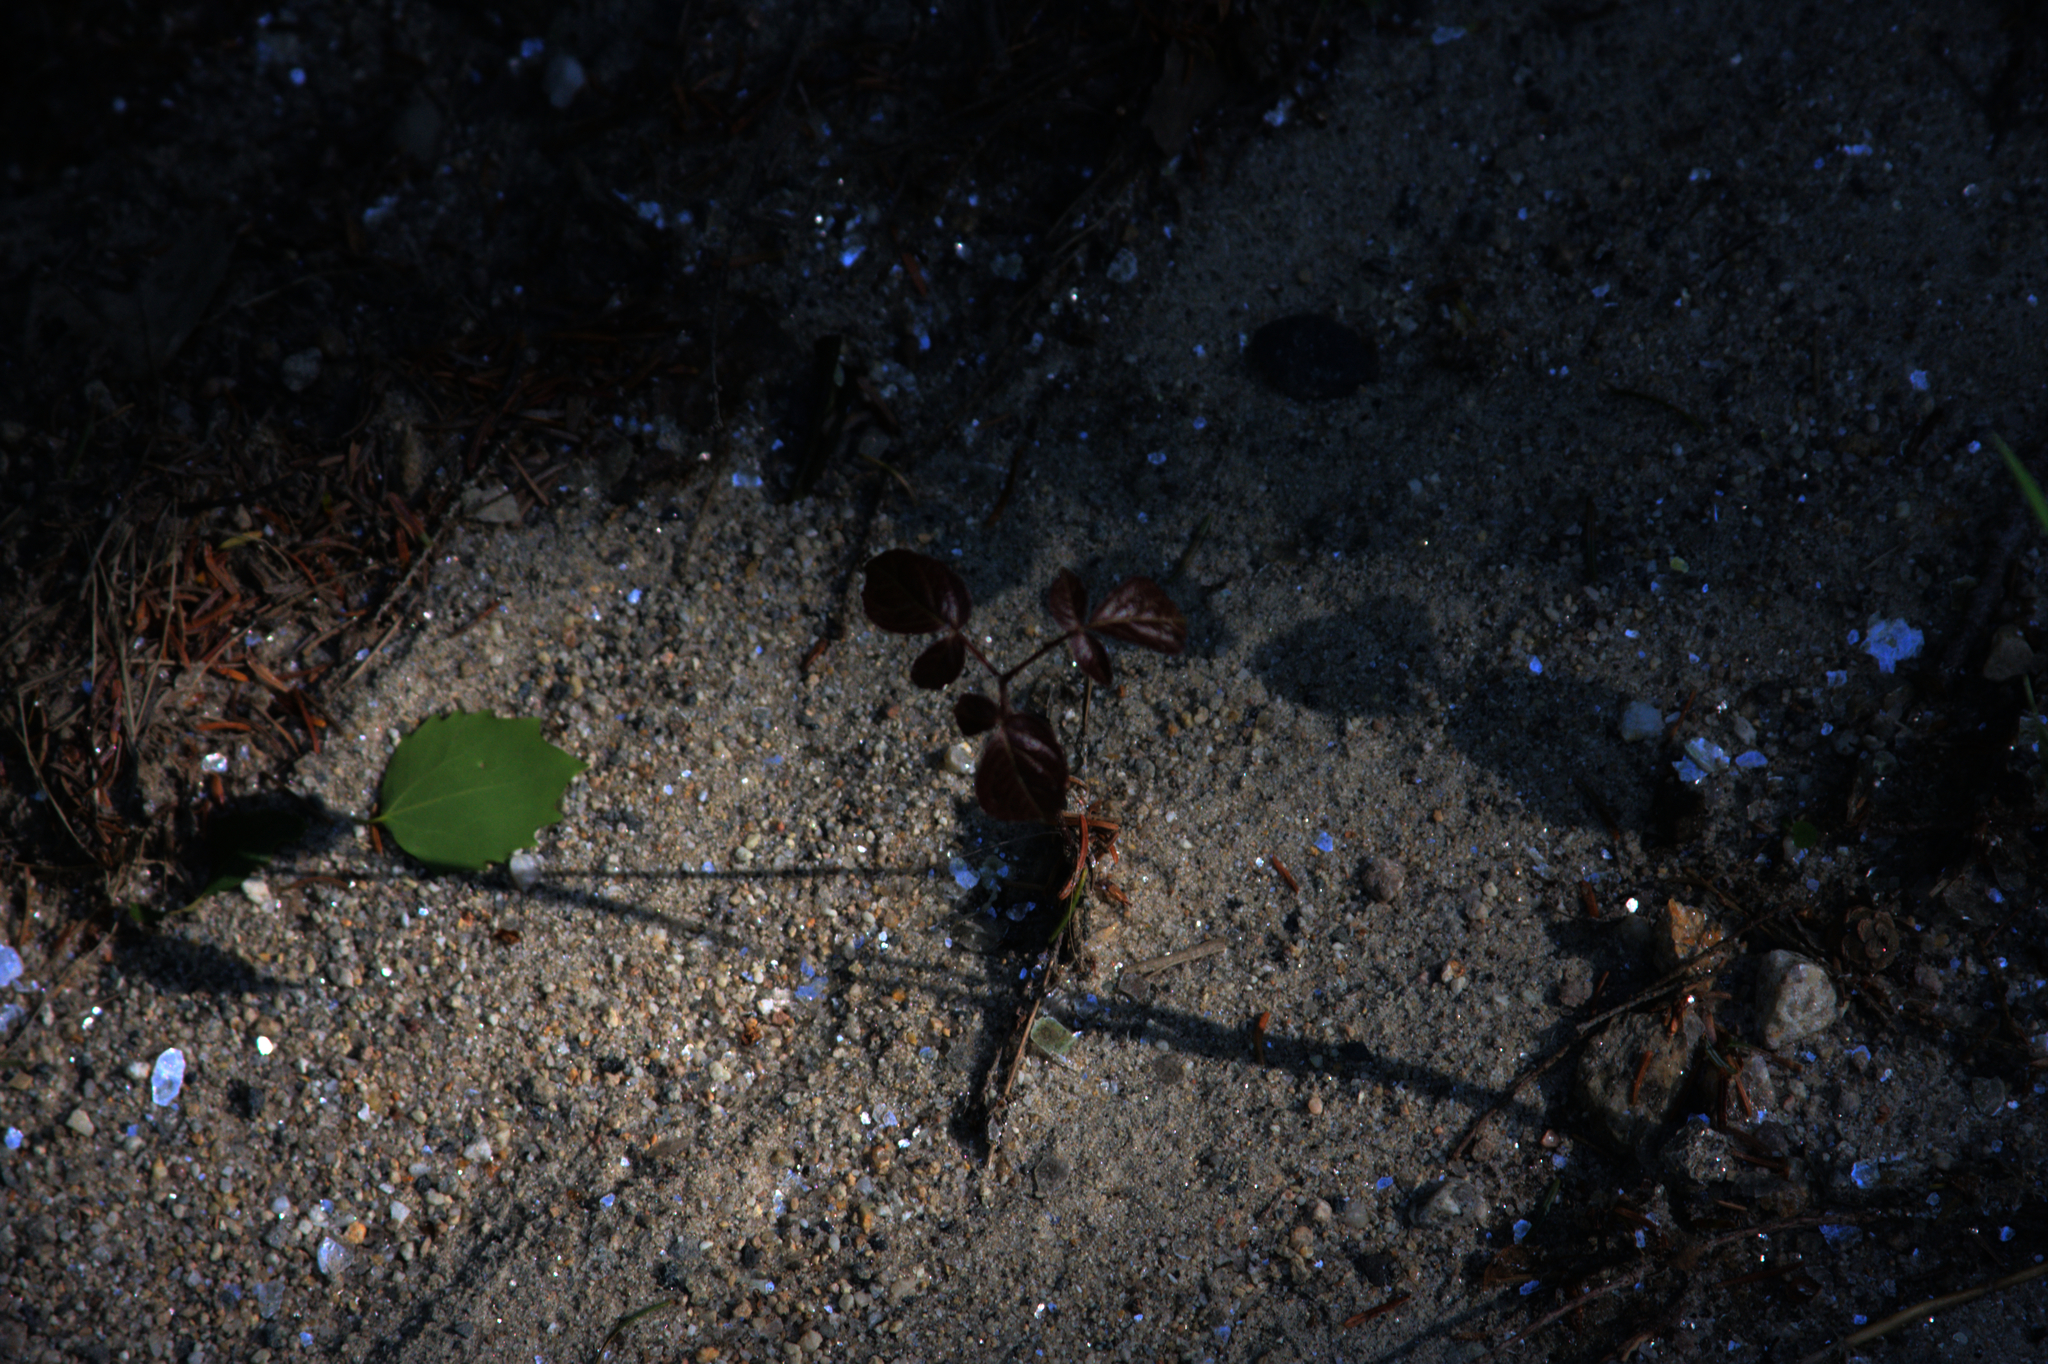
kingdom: Plantae
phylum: Tracheophyta
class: Magnoliopsida
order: Apiales
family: Araliaceae
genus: Aralia
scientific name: Aralia nudicaulis
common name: Wild sarsaparilla
